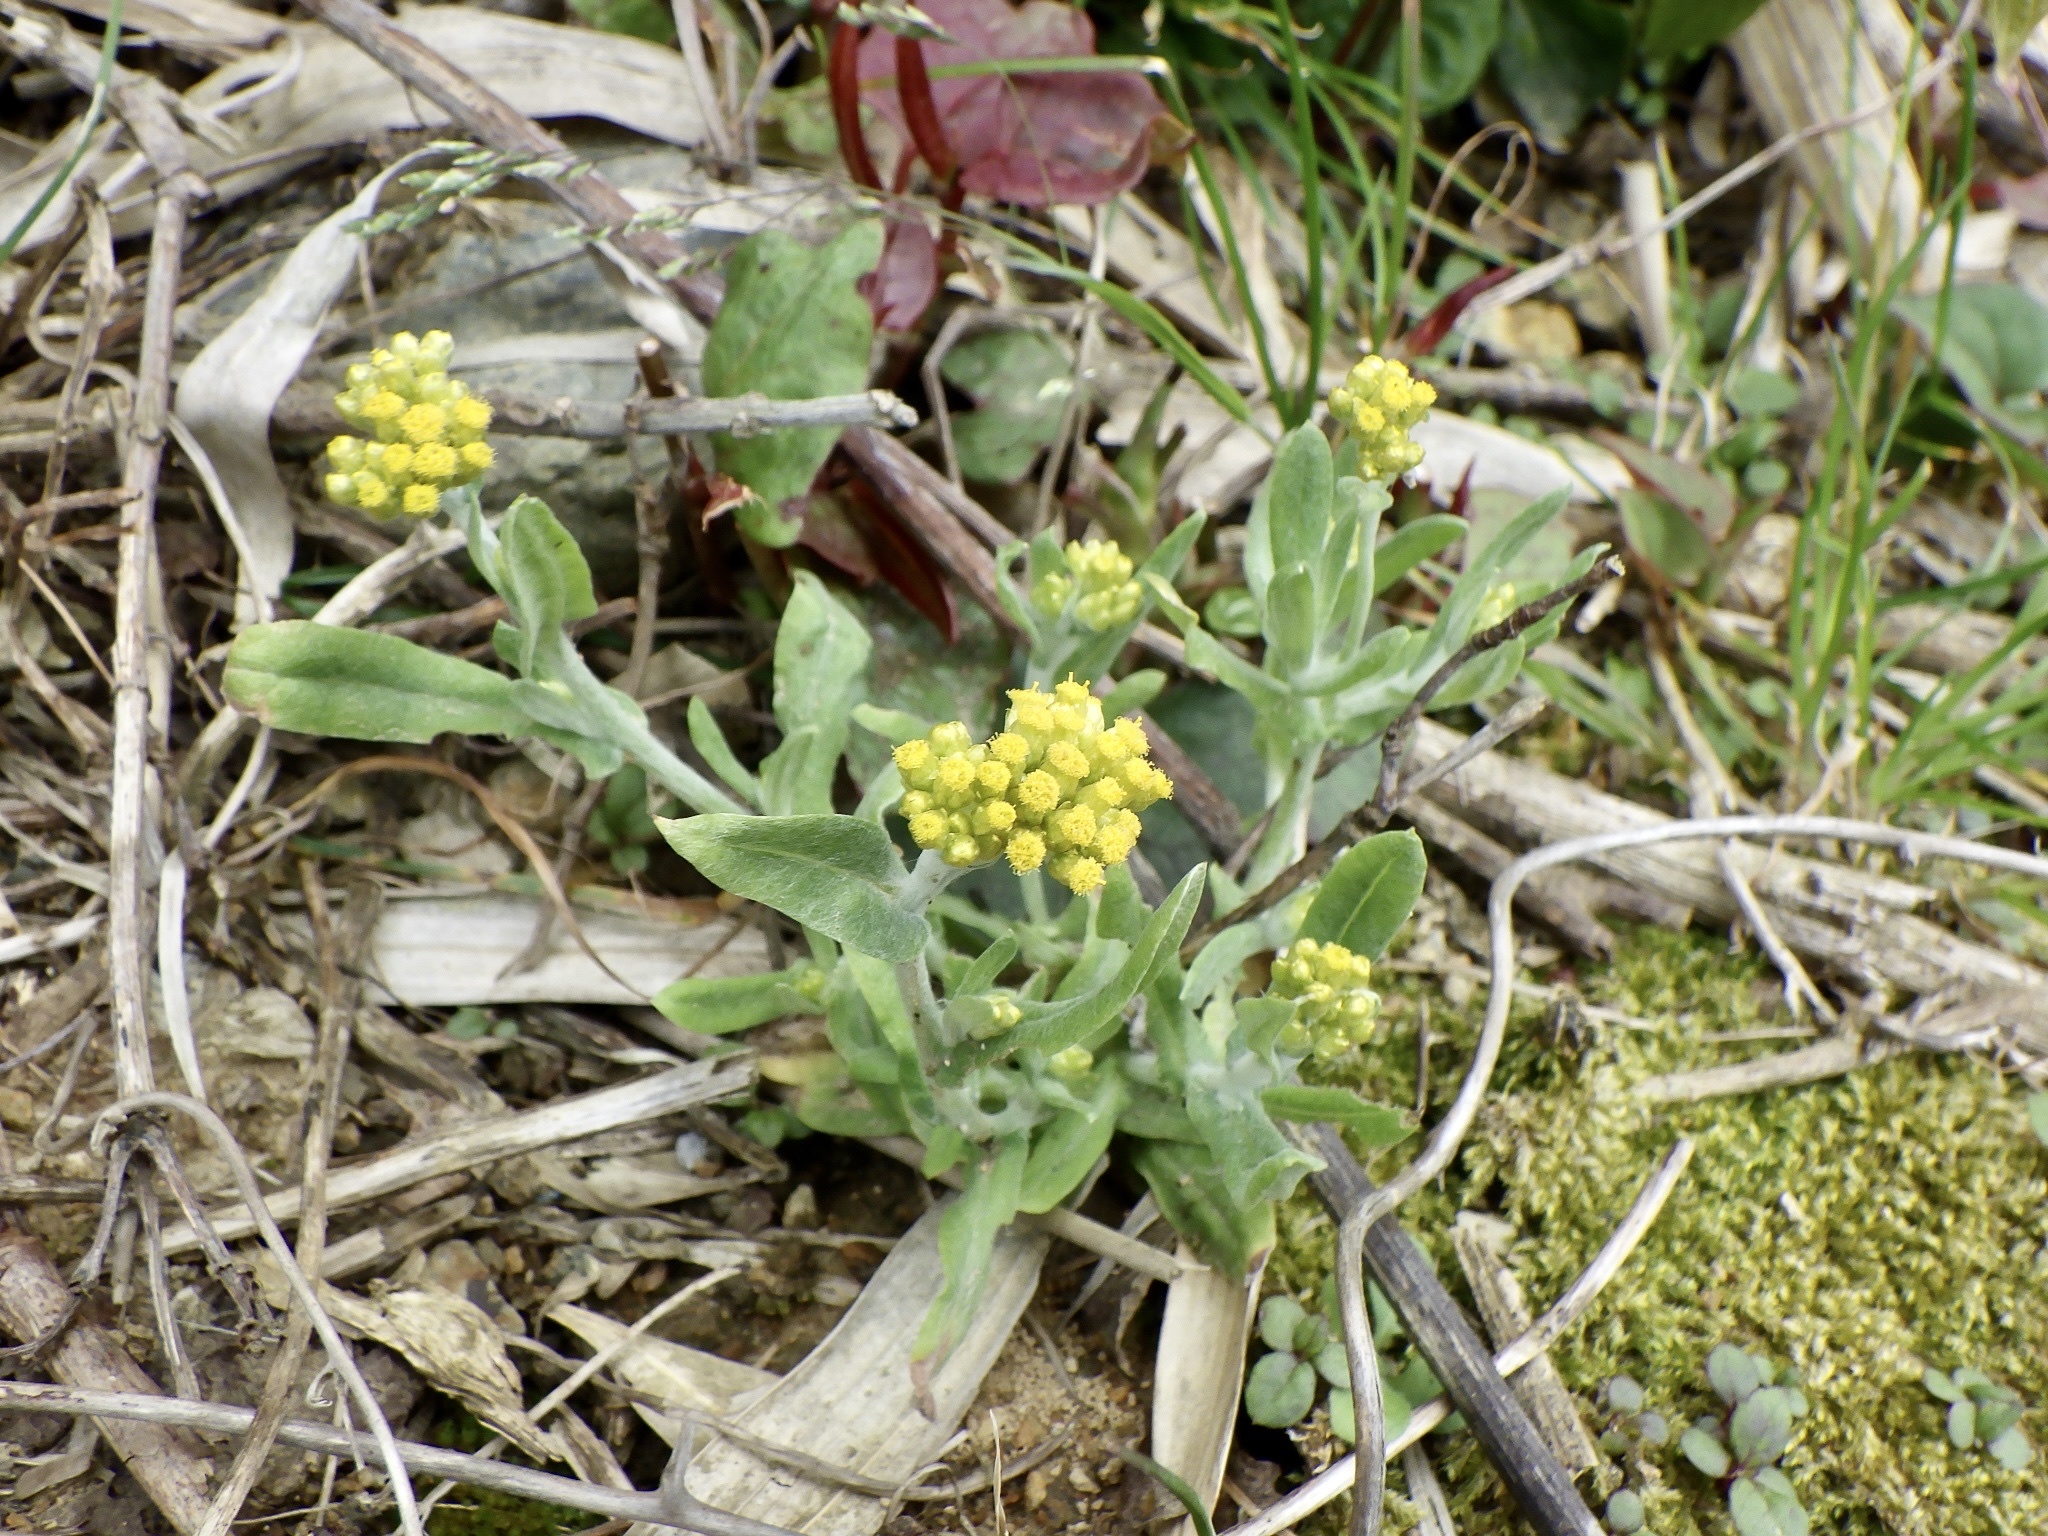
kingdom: Plantae
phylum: Tracheophyta
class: Magnoliopsida
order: Asterales
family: Asteraceae
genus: Pseudognaphalium
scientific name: Pseudognaphalium affine
